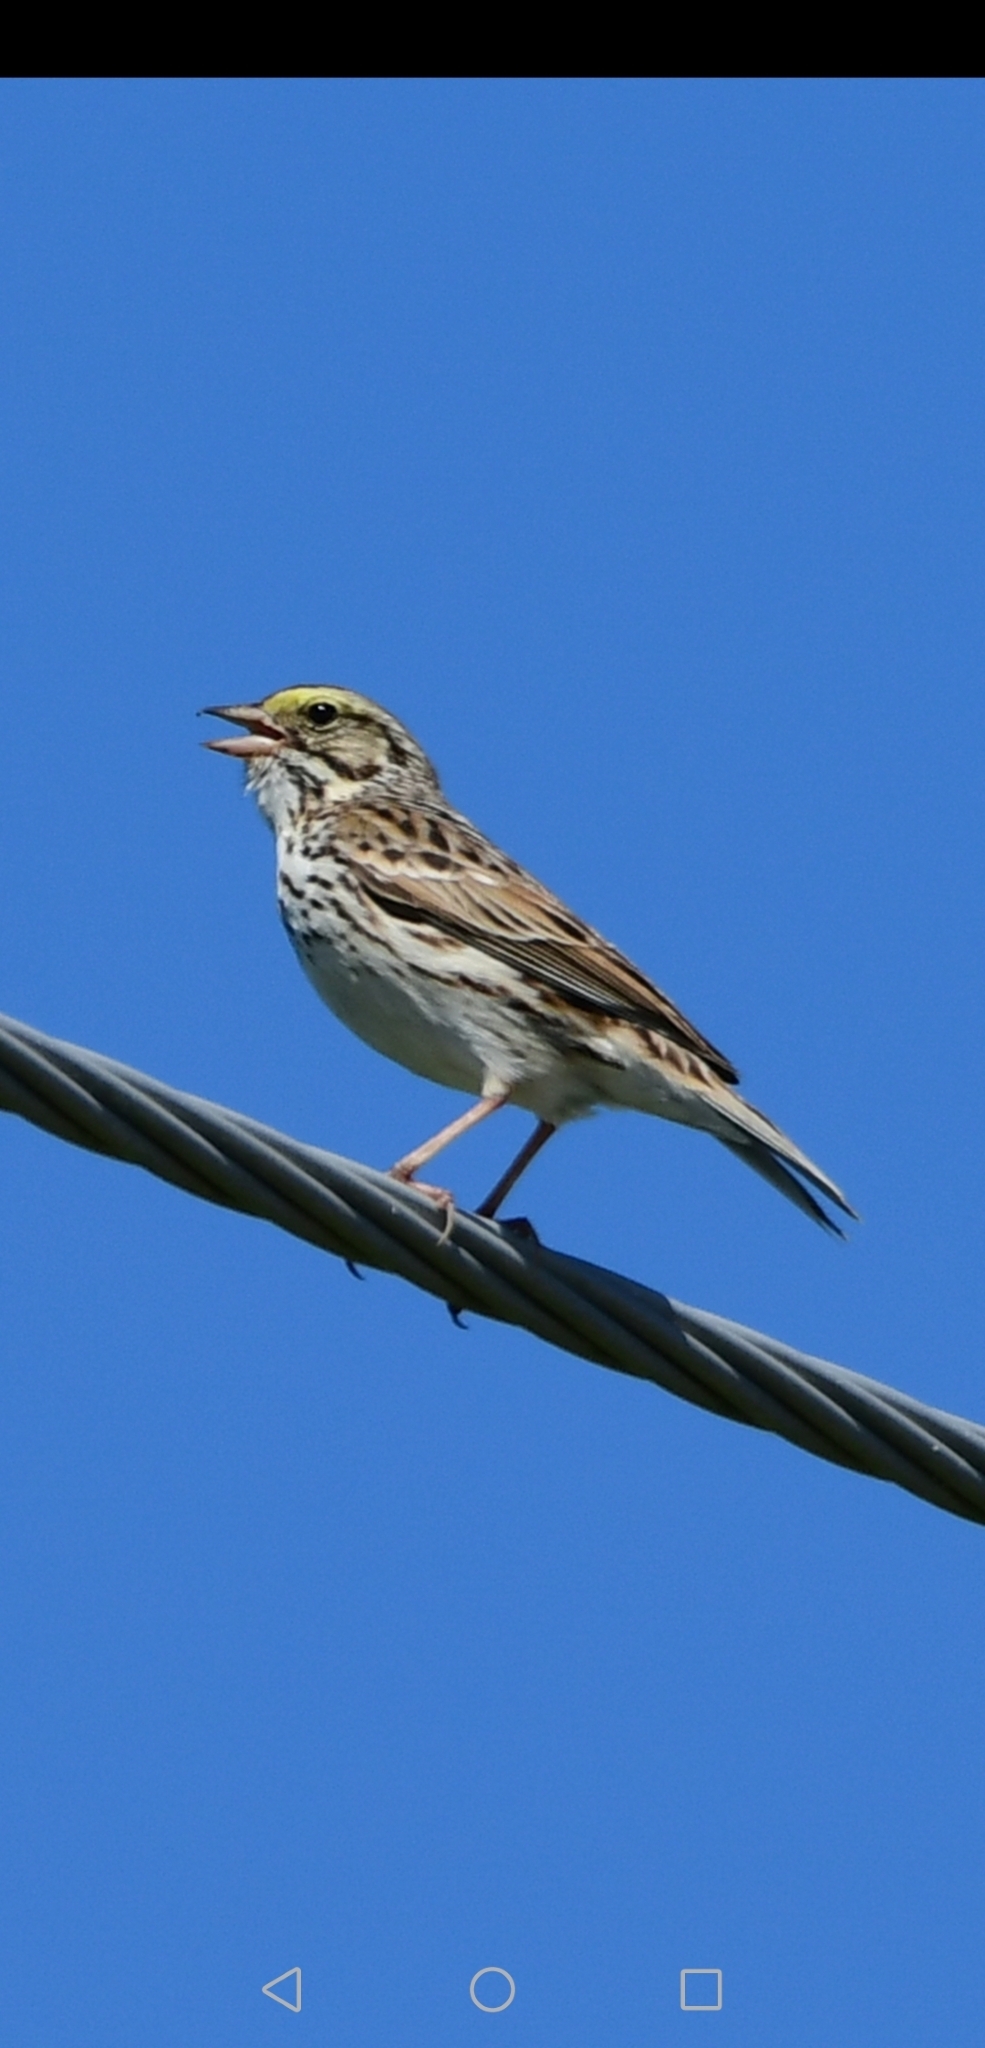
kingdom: Animalia
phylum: Chordata
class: Aves
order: Passeriformes
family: Passerellidae
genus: Passerculus
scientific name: Passerculus sandwichensis
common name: Savannah sparrow
